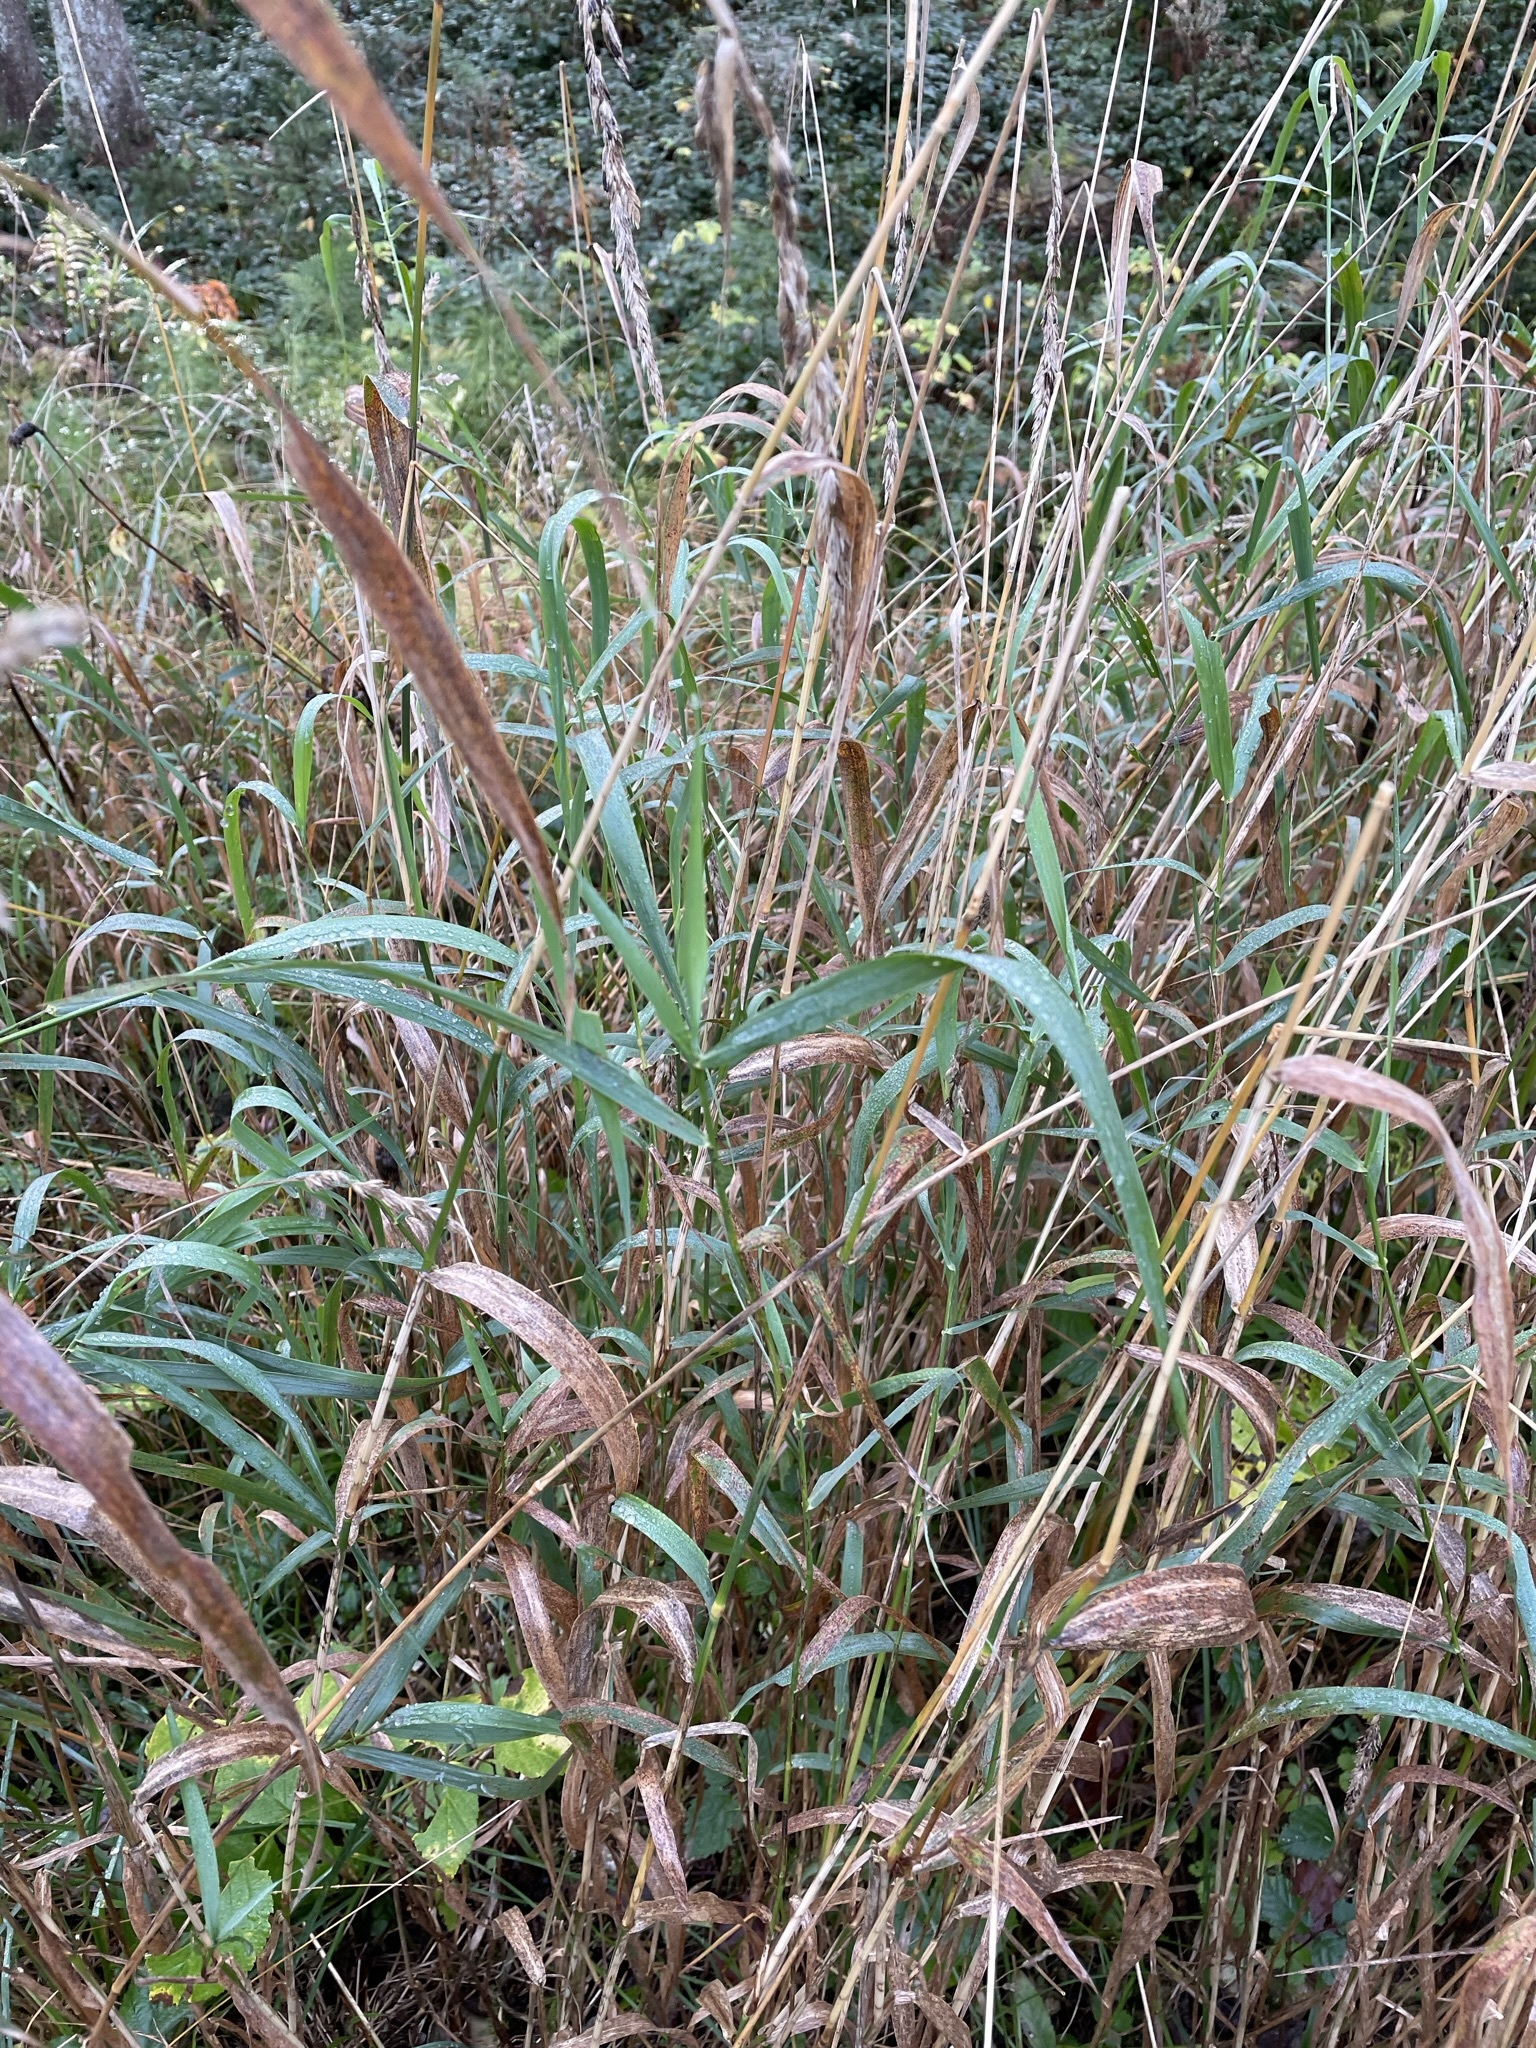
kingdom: Plantae
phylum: Tracheophyta
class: Liliopsida
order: Poales
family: Poaceae
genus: Phalaris
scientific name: Phalaris arundinacea
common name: Reed canary-grass
